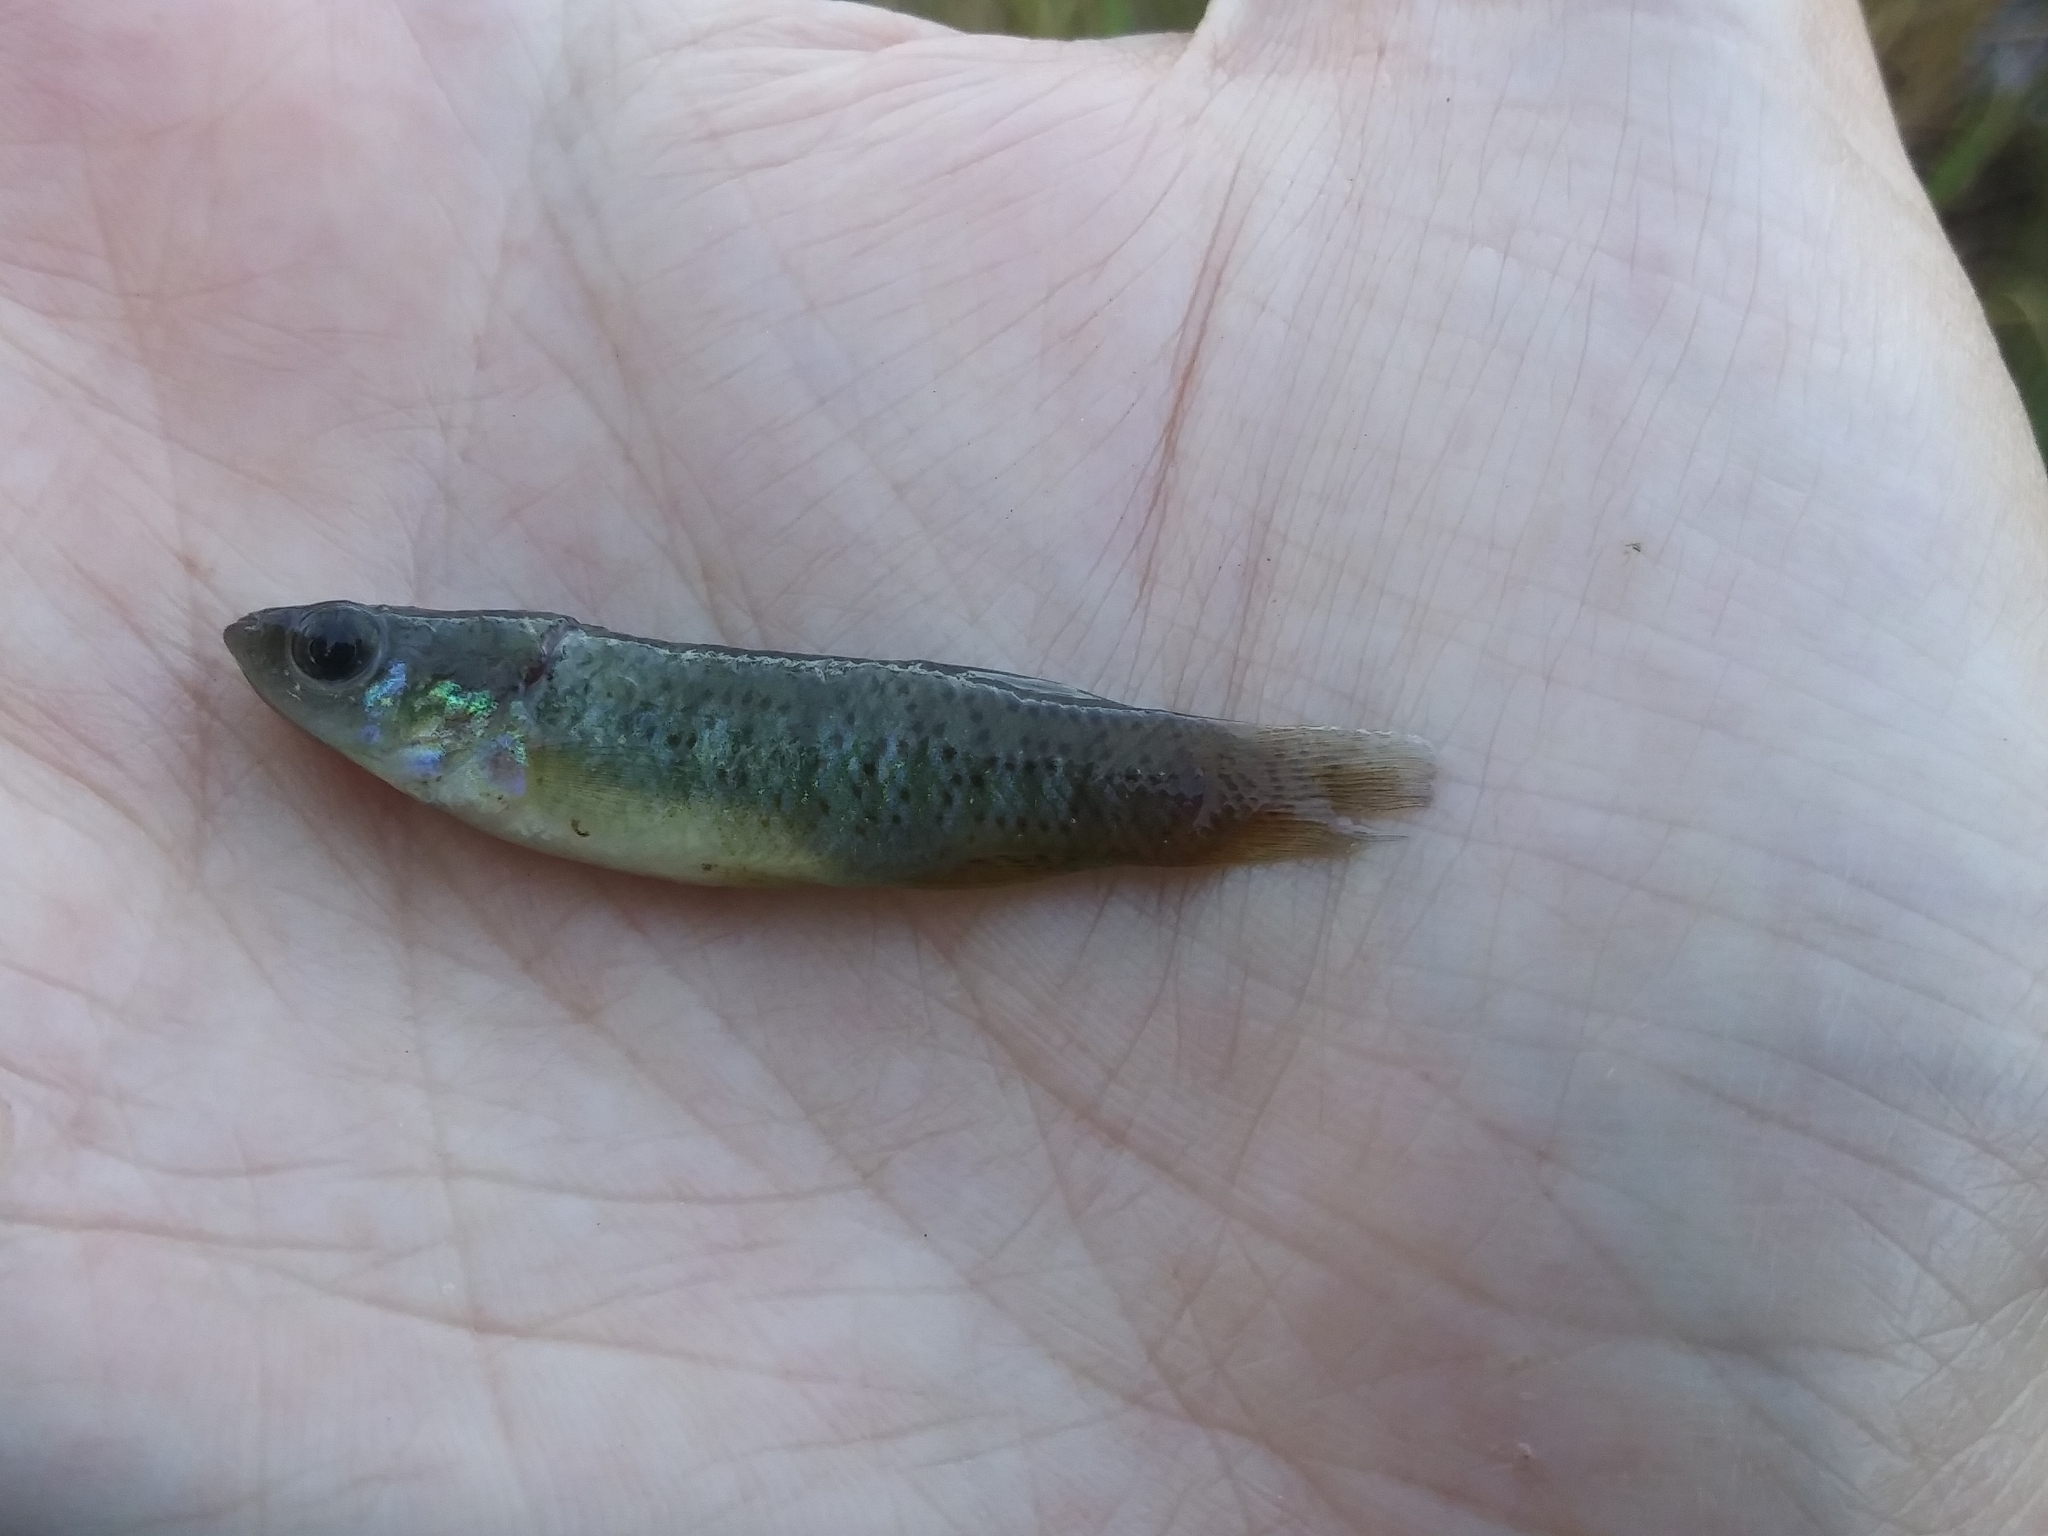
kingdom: Animalia
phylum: Chordata
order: Cyprinodontiformes
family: Fundulidae
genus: Fundulus
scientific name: Fundulus rubrifrons
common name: Redface topminnow
